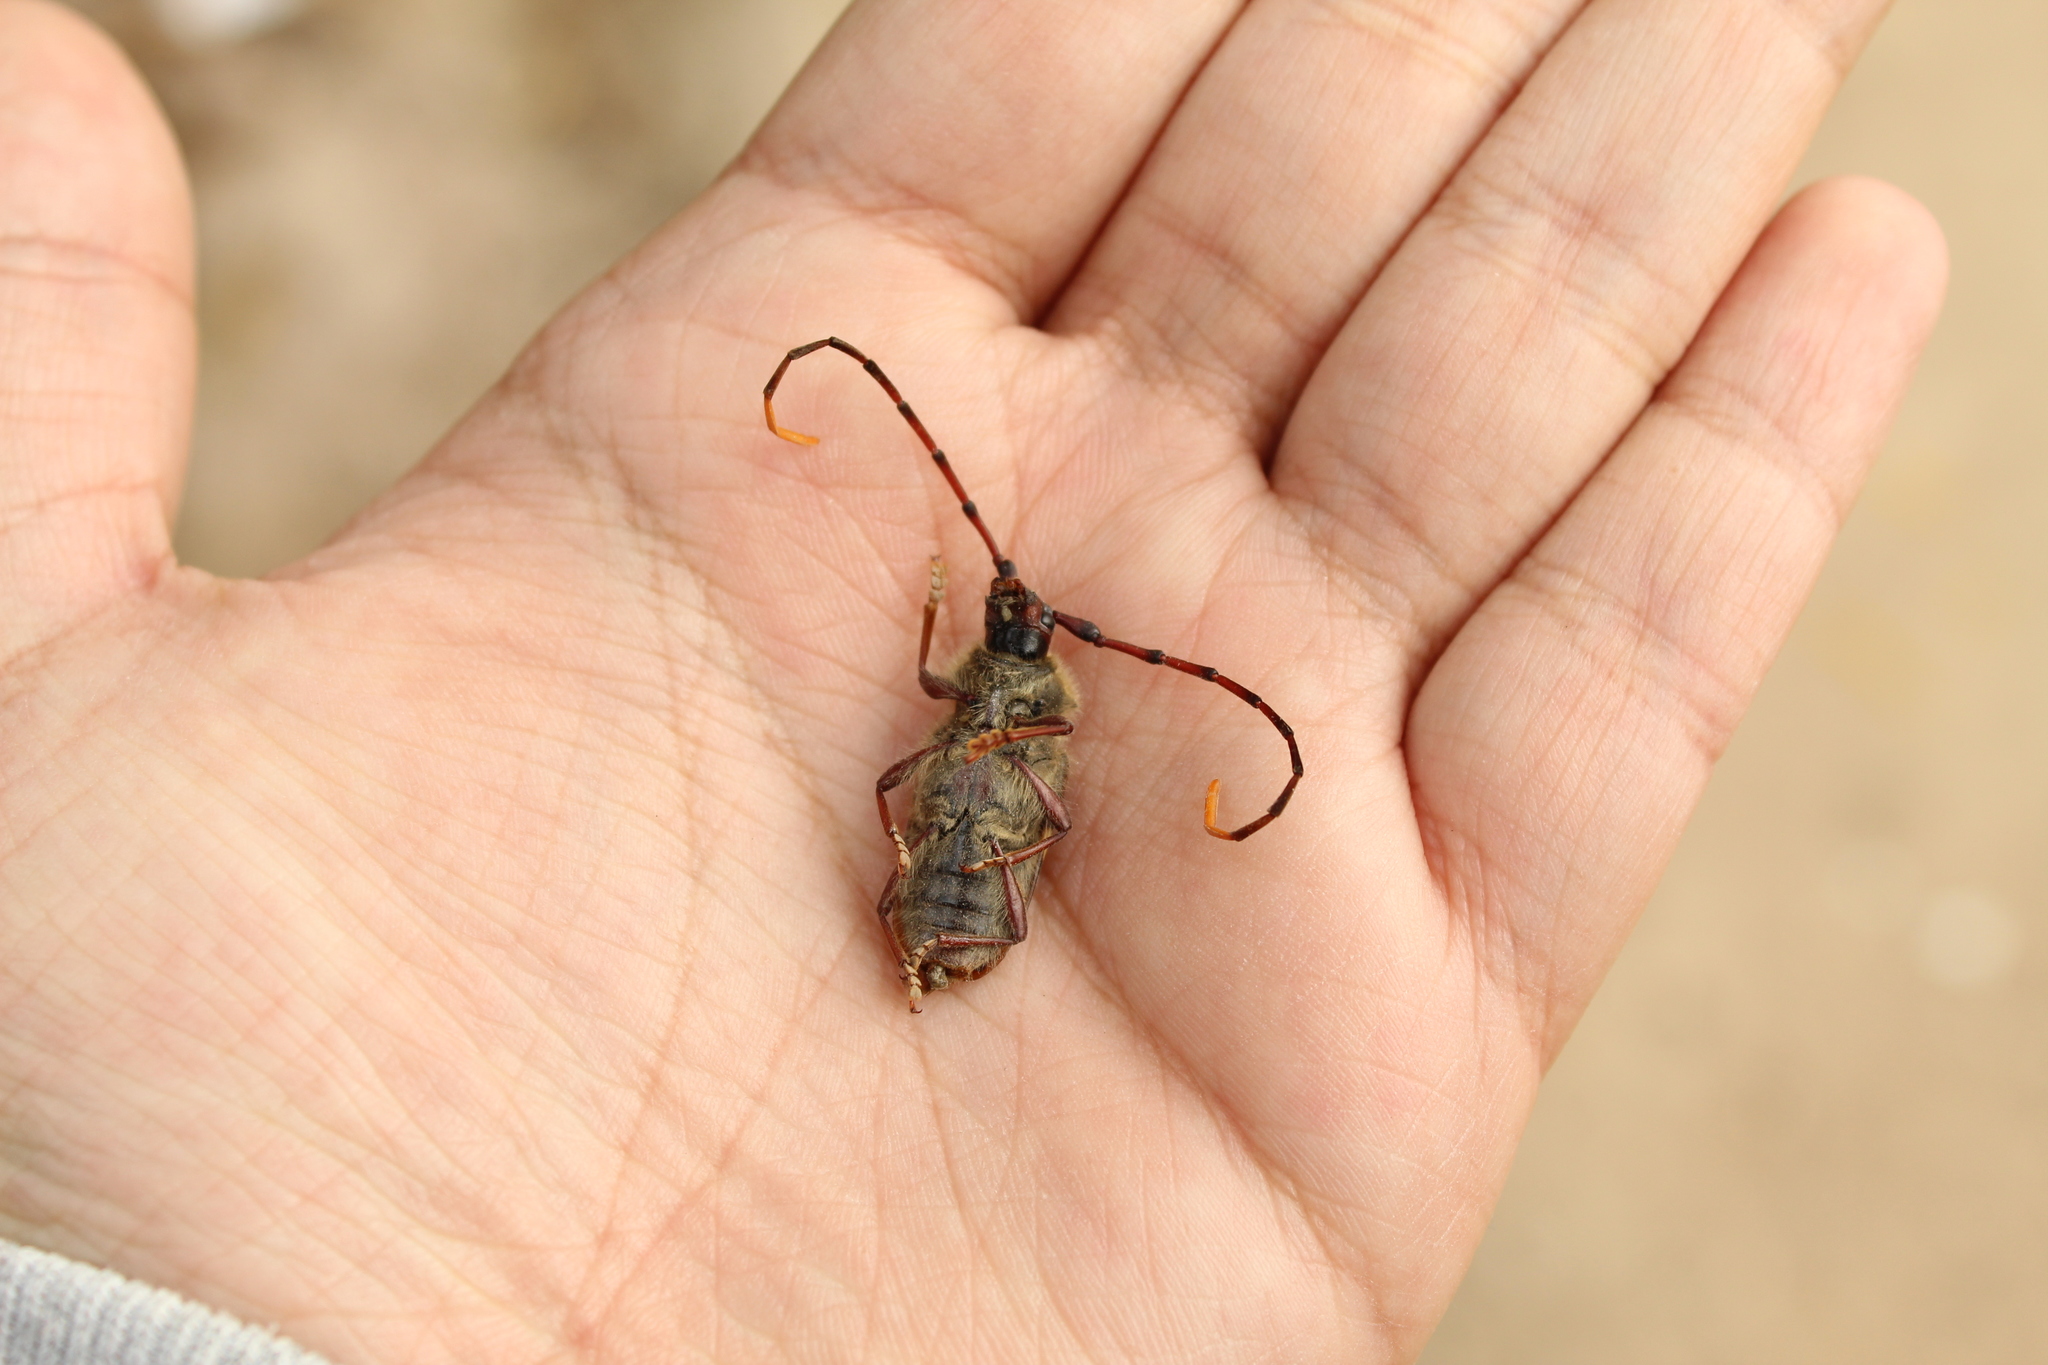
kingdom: Animalia
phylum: Arthropoda
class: Insecta
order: Coleoptera
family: Cerambycidae
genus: Deretrachys
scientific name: Deretrachys juvencus
